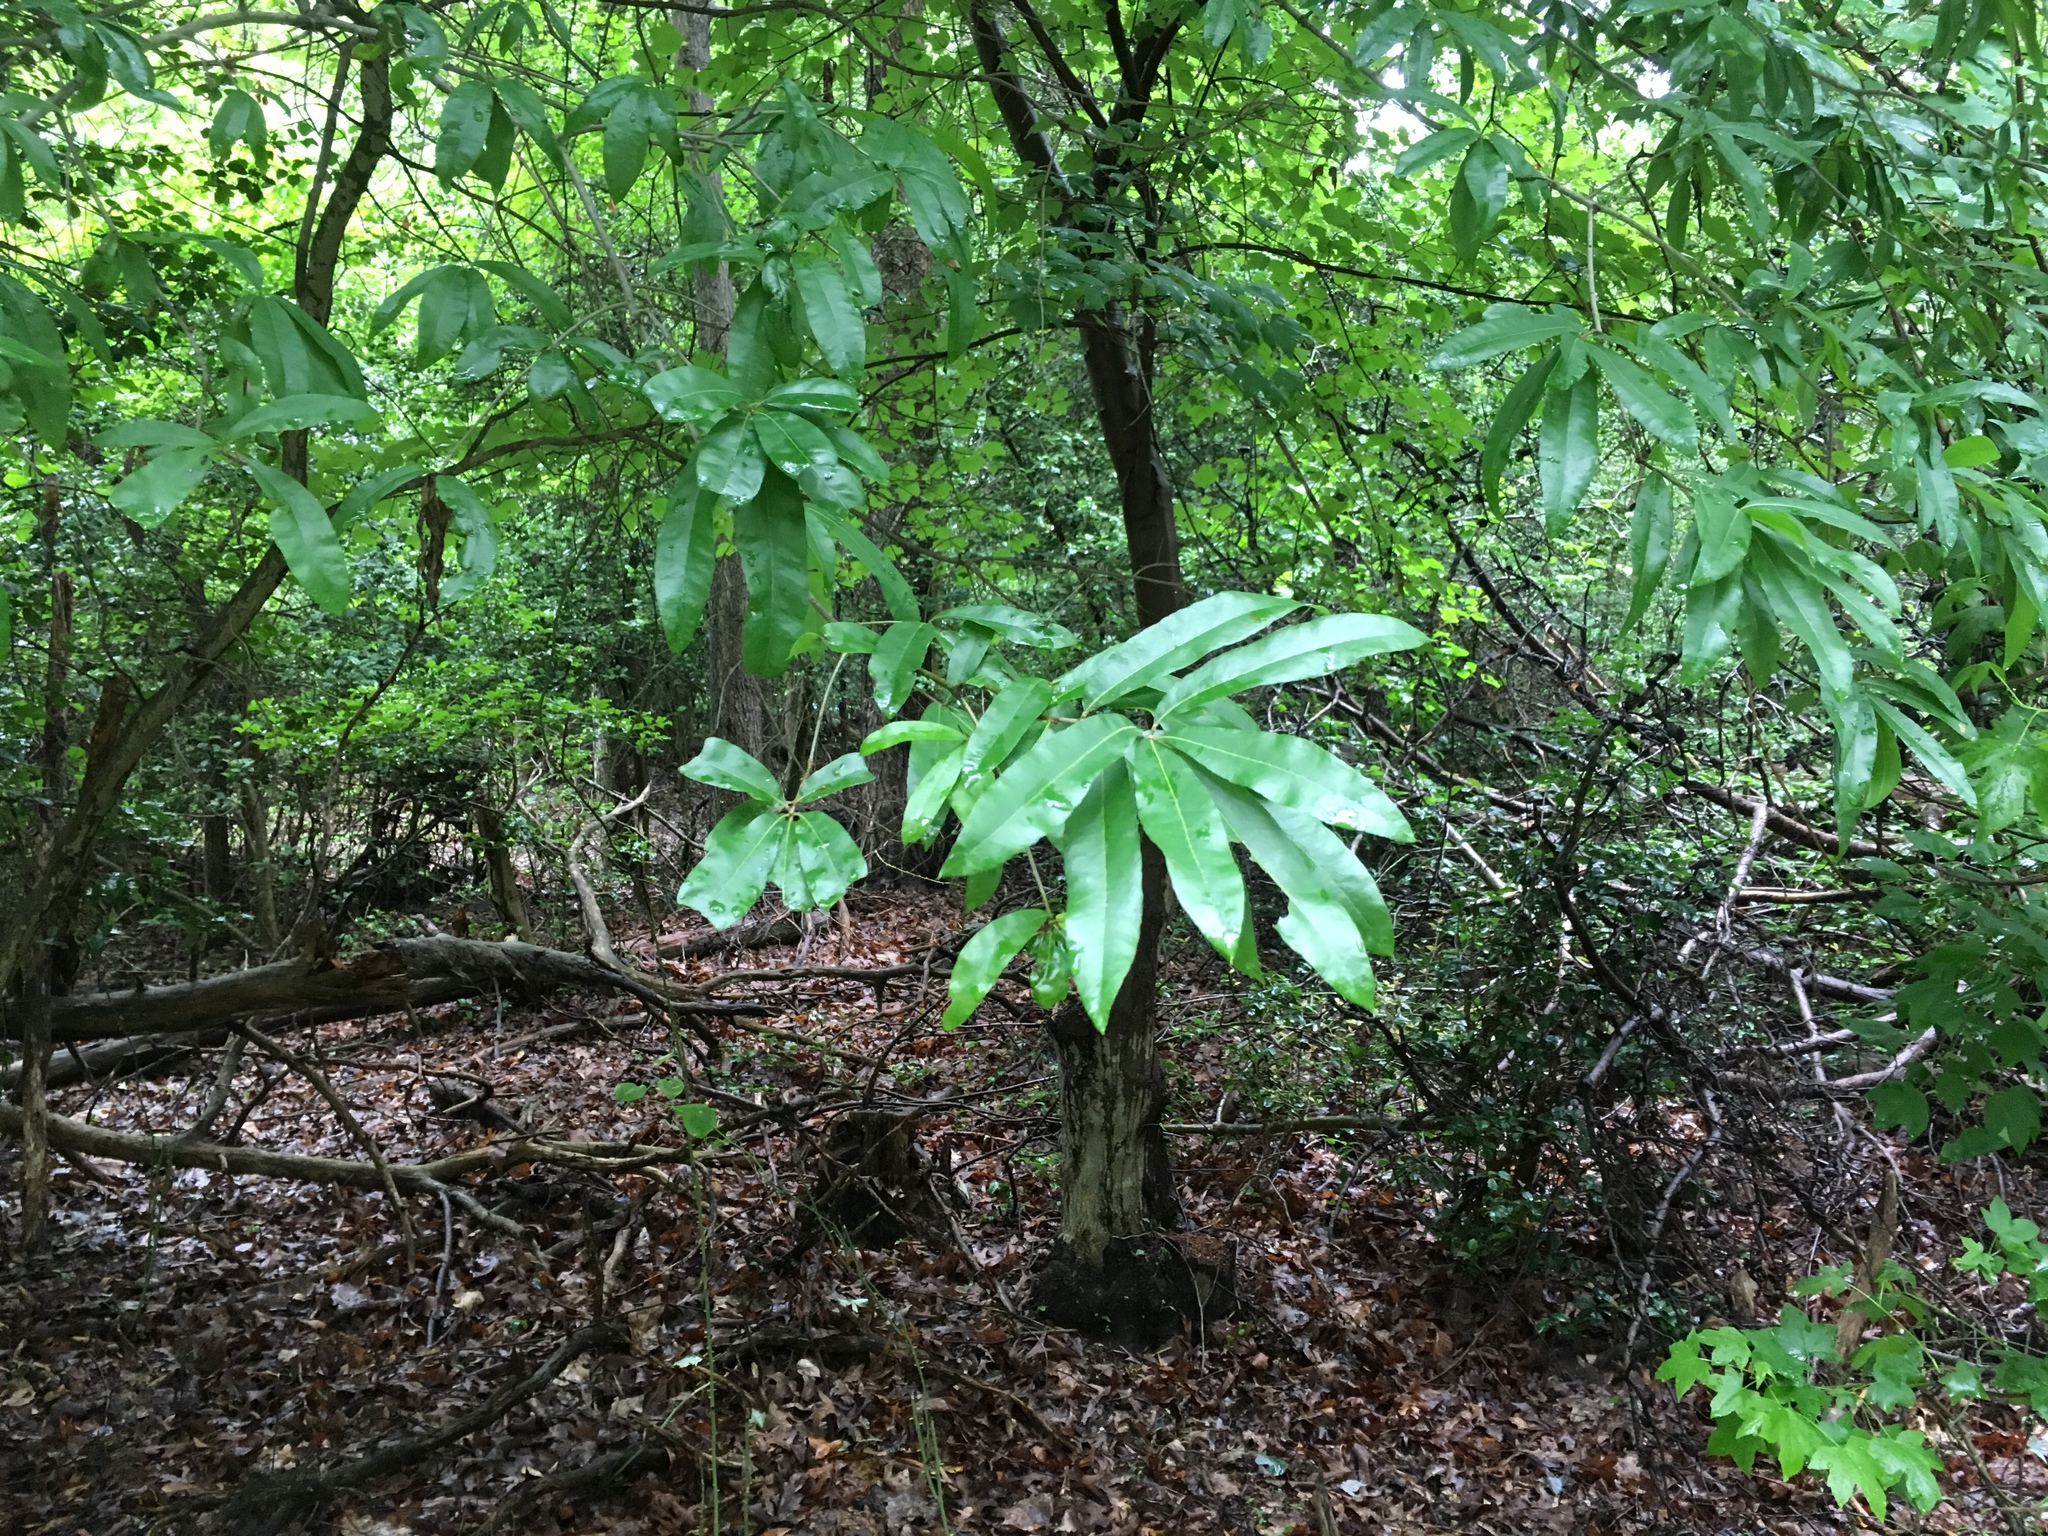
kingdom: Plantae
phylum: Tracheophyta
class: Magnoliopsida
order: Fagales
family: Fagaceae
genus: Quercus
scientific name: Quercus phellos
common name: Willow oak
